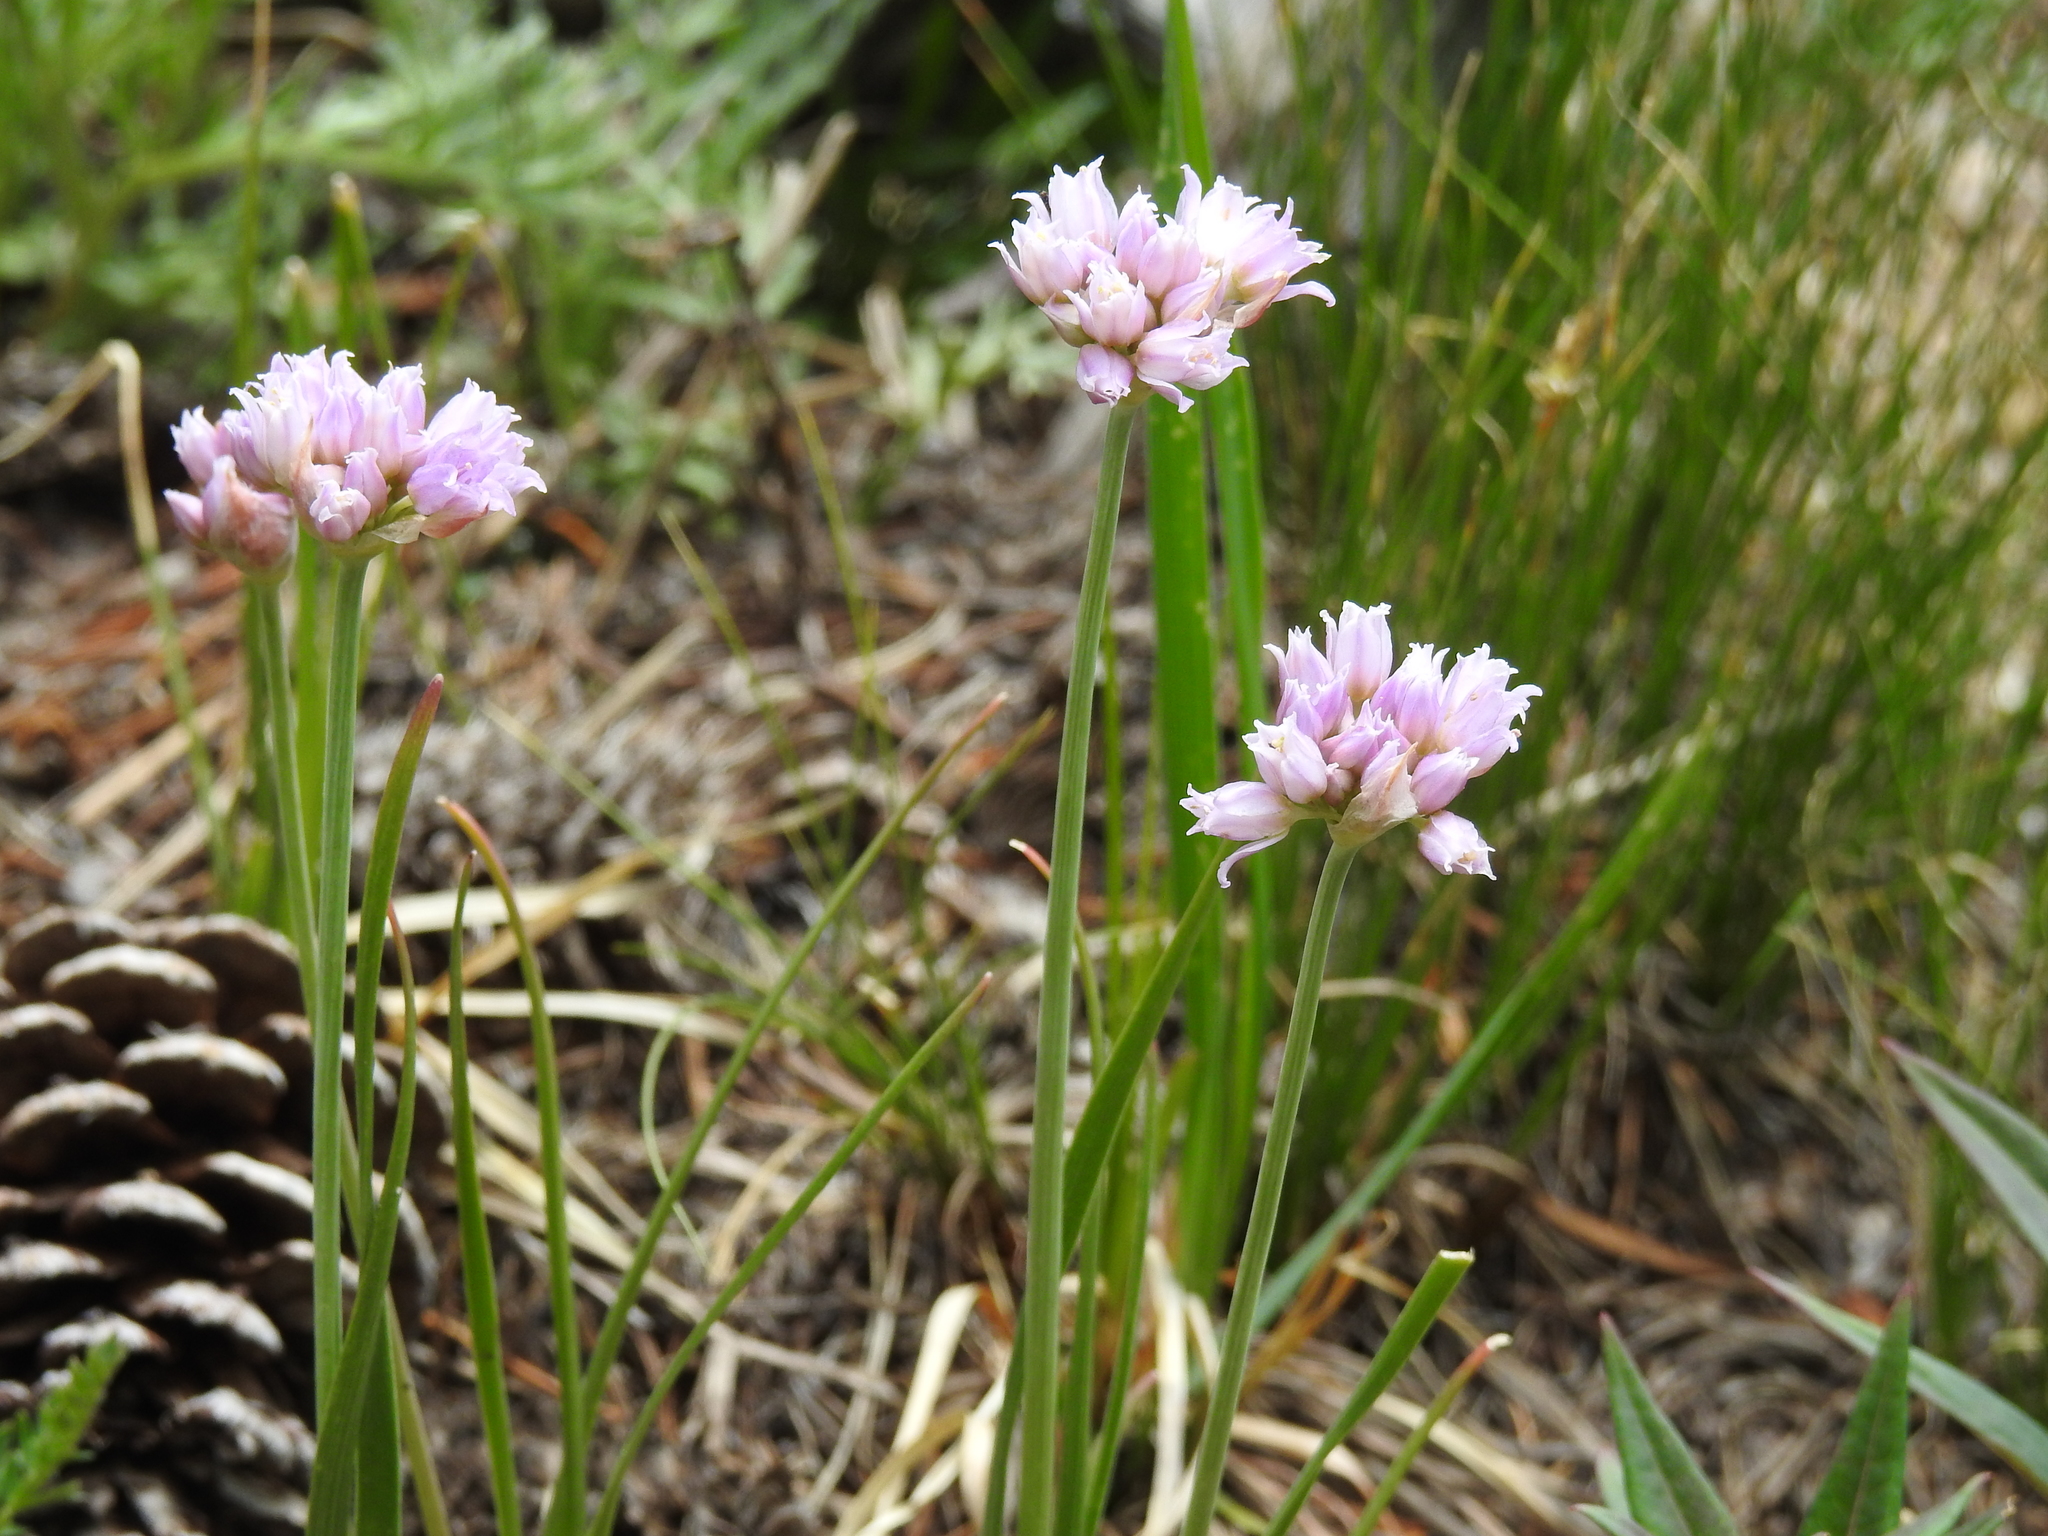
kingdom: Plantae
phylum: Tracheophyta
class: Liliopsida
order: Asparagales
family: Amaryllidaceae
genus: Allium
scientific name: Allium geyeri
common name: Geyer's onion
